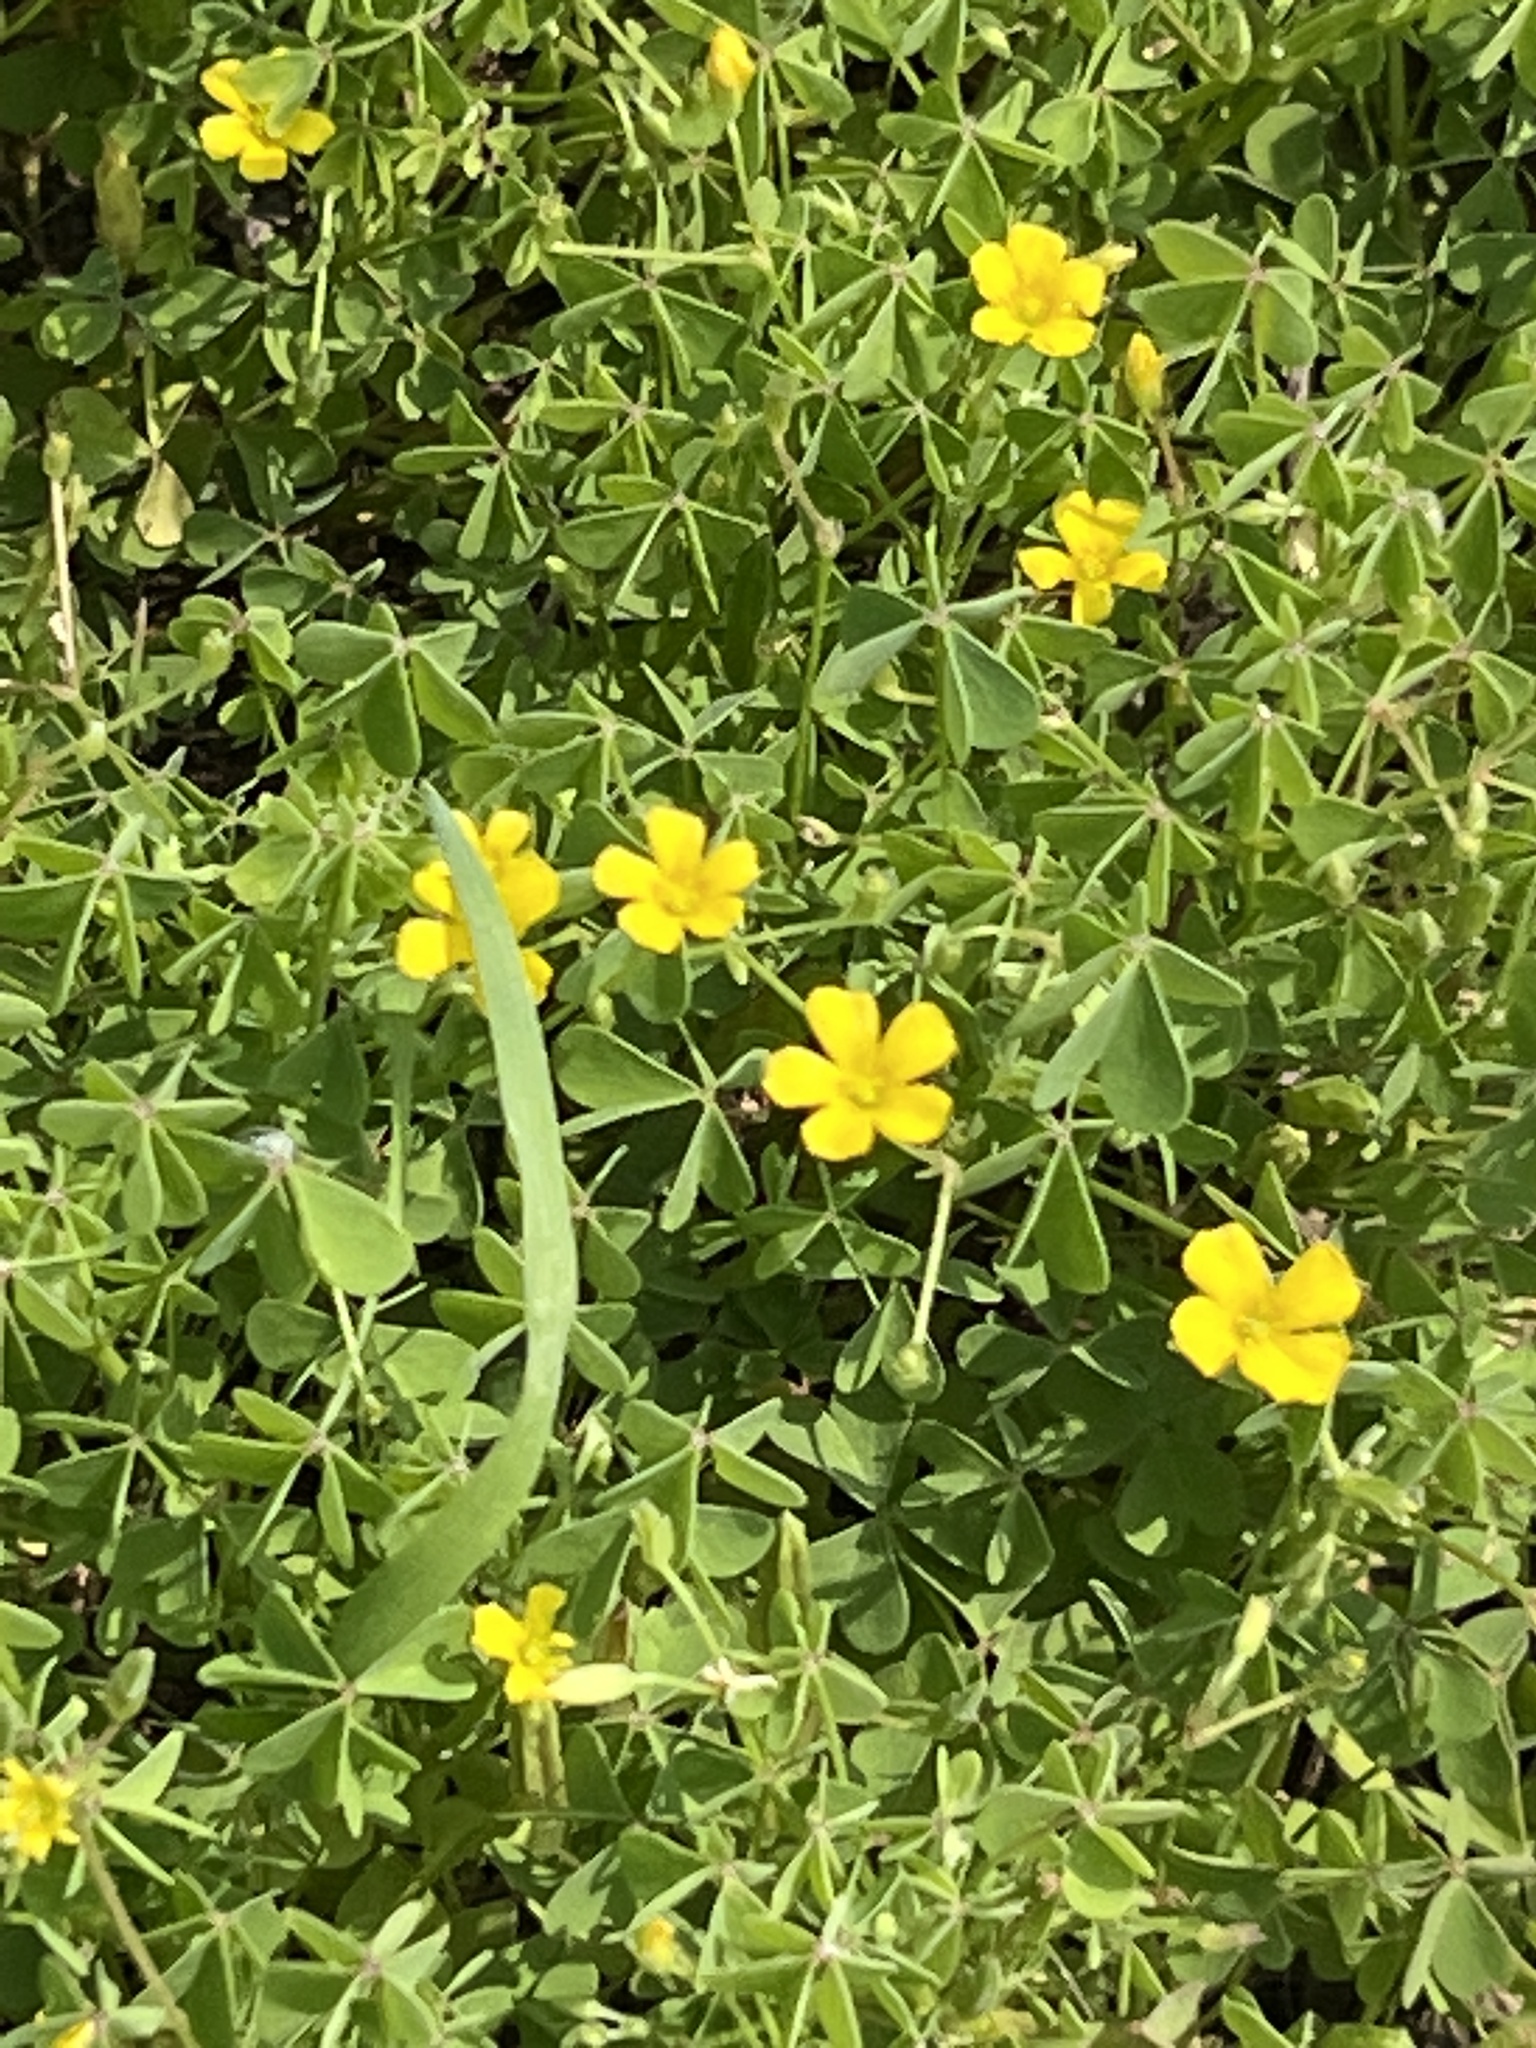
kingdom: Plantae
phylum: Tracheophyta
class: Magnoliopsida
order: Oxalidales
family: Oxalidaceae
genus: Oxalis
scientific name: Oxalis dillenii
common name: Sussex yellow-sorrel
